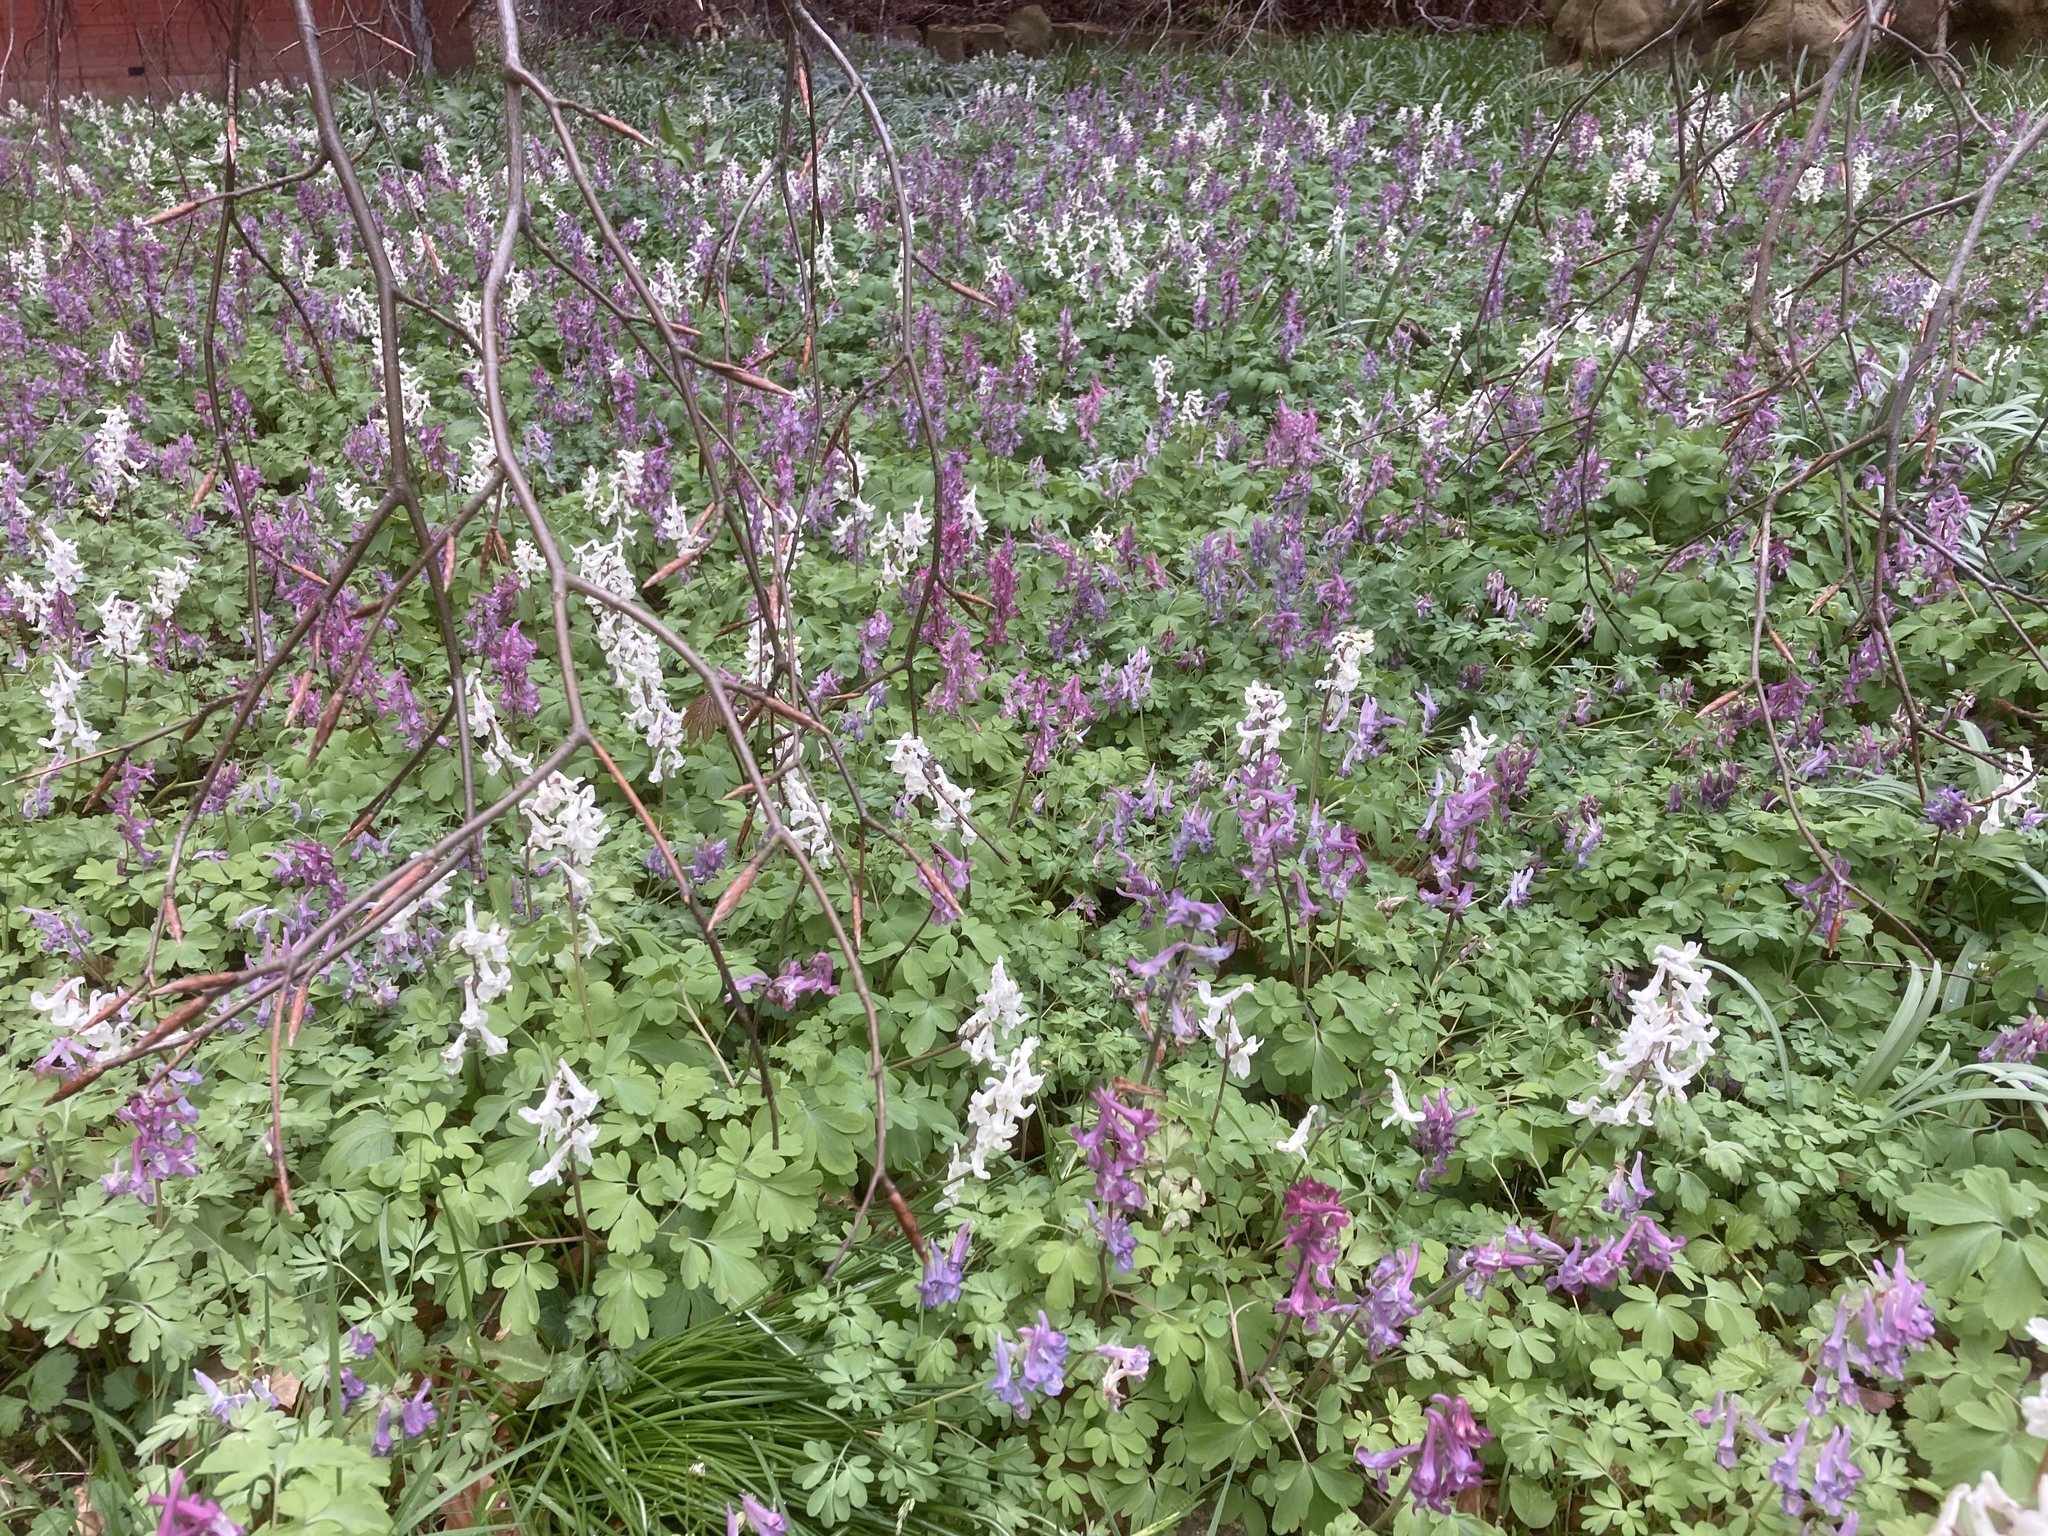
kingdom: Plantae
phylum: Tracheophyta
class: Magnoliopsida
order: Ranunculales
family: Papaveraceae
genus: Corydalis
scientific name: Corydalis cava
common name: Hollowroot
